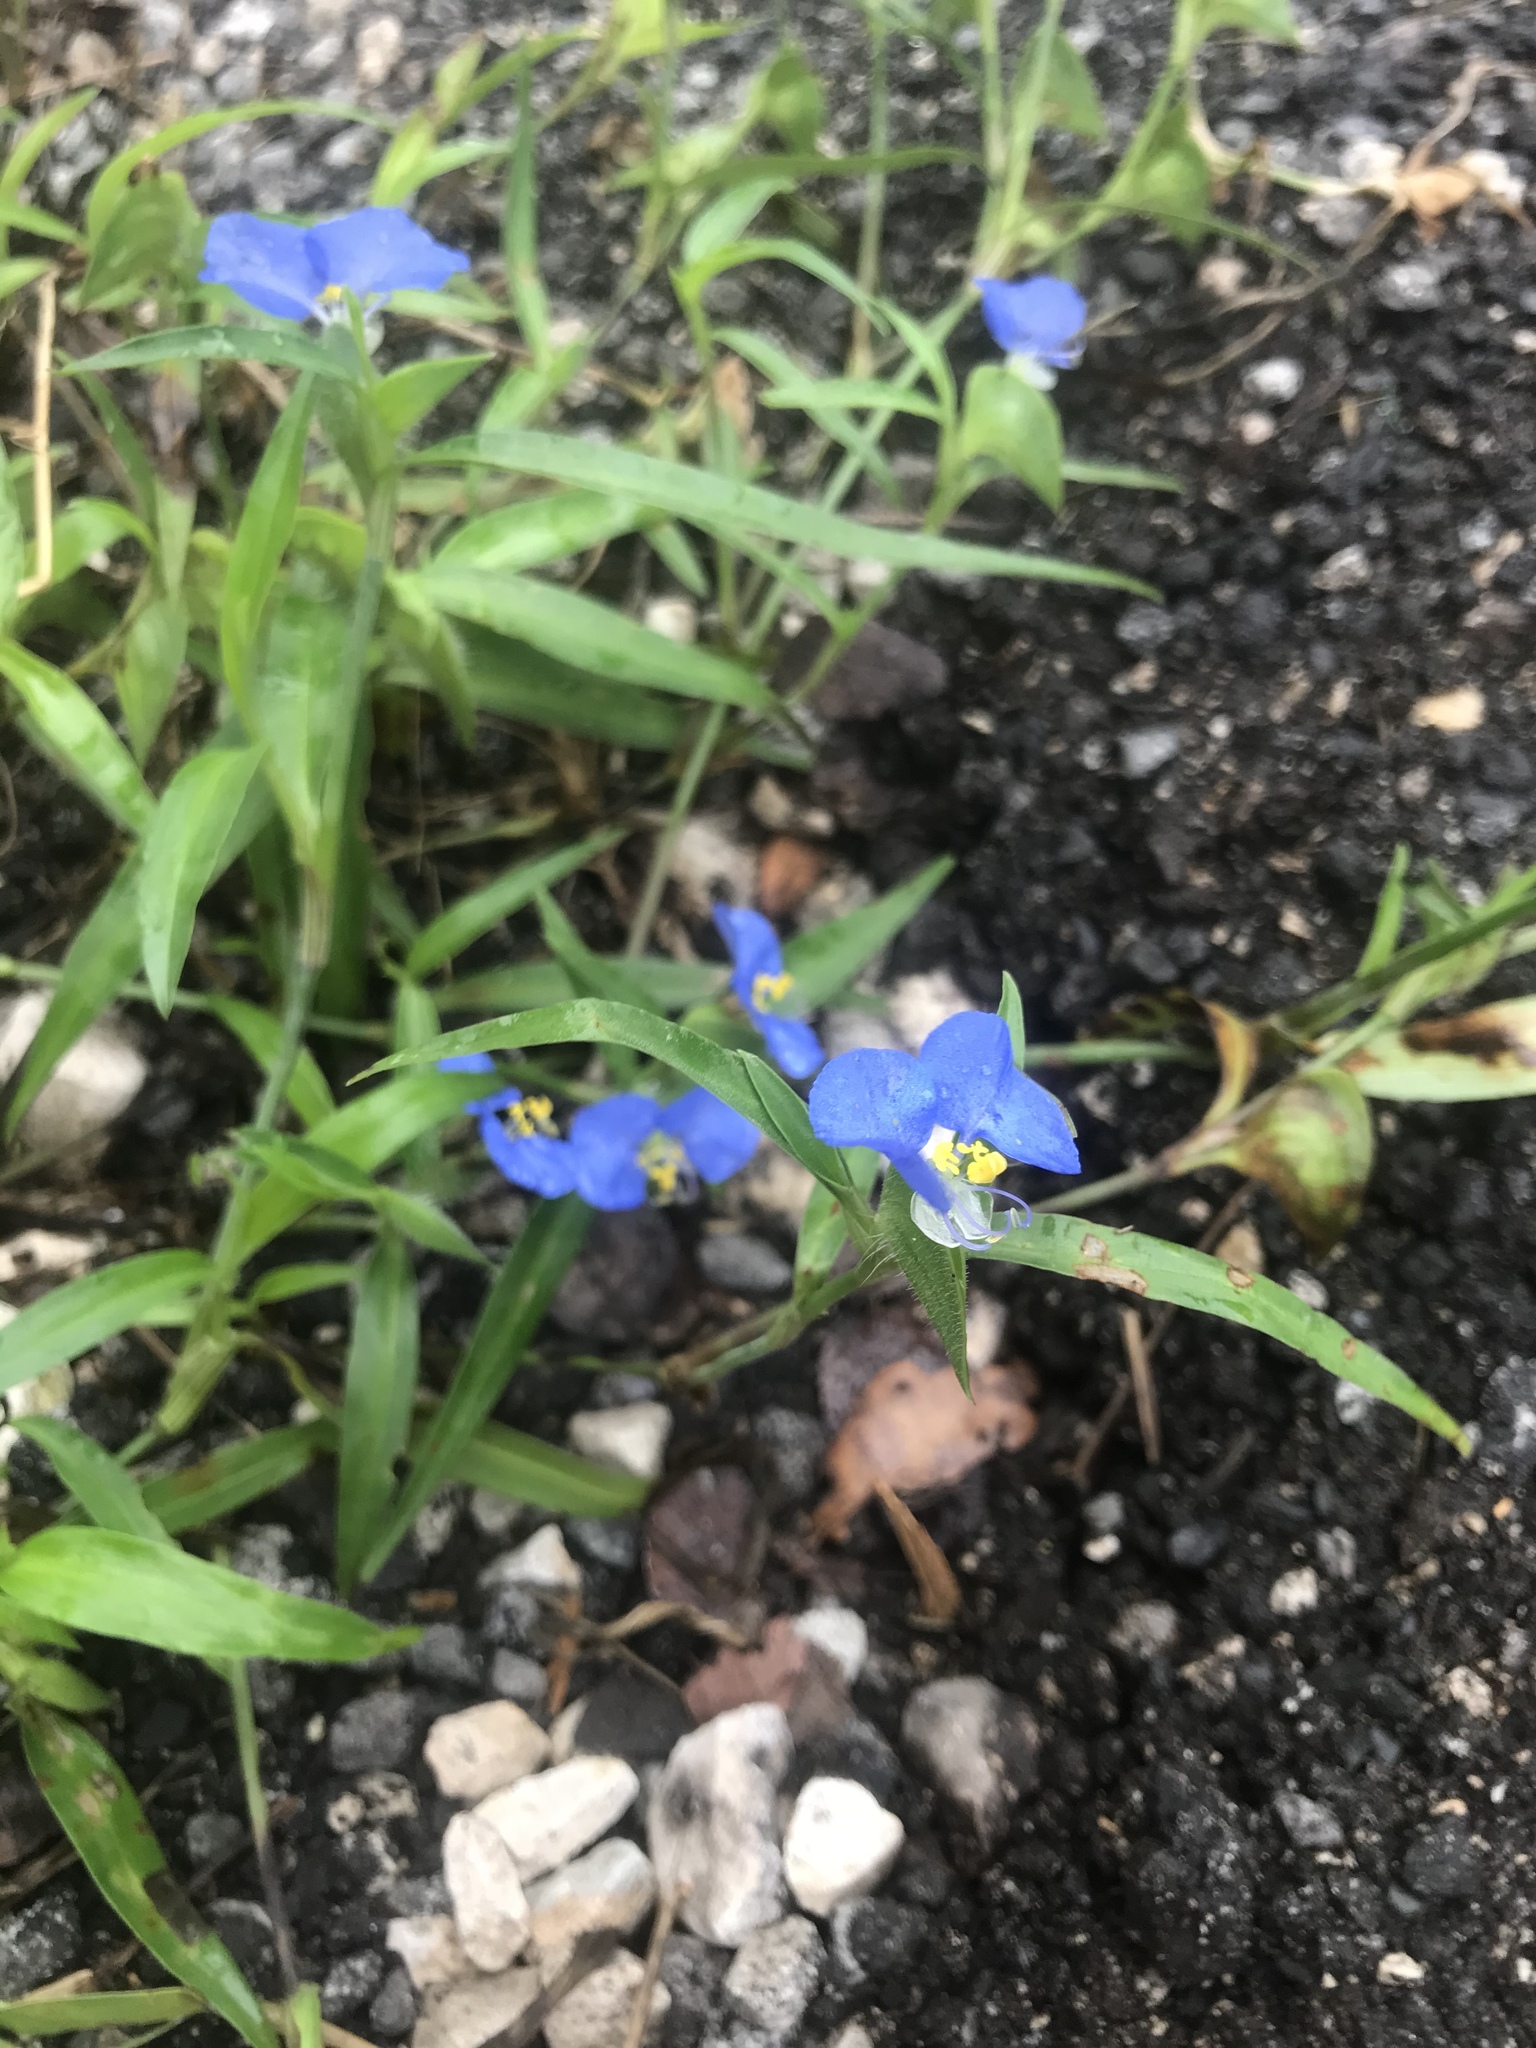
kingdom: Plantae
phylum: Tracheophyta
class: Liliopsida
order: Commelinales
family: Commelinaceae
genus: Commelina
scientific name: Commelina erecta
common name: Blousel blommetjie
